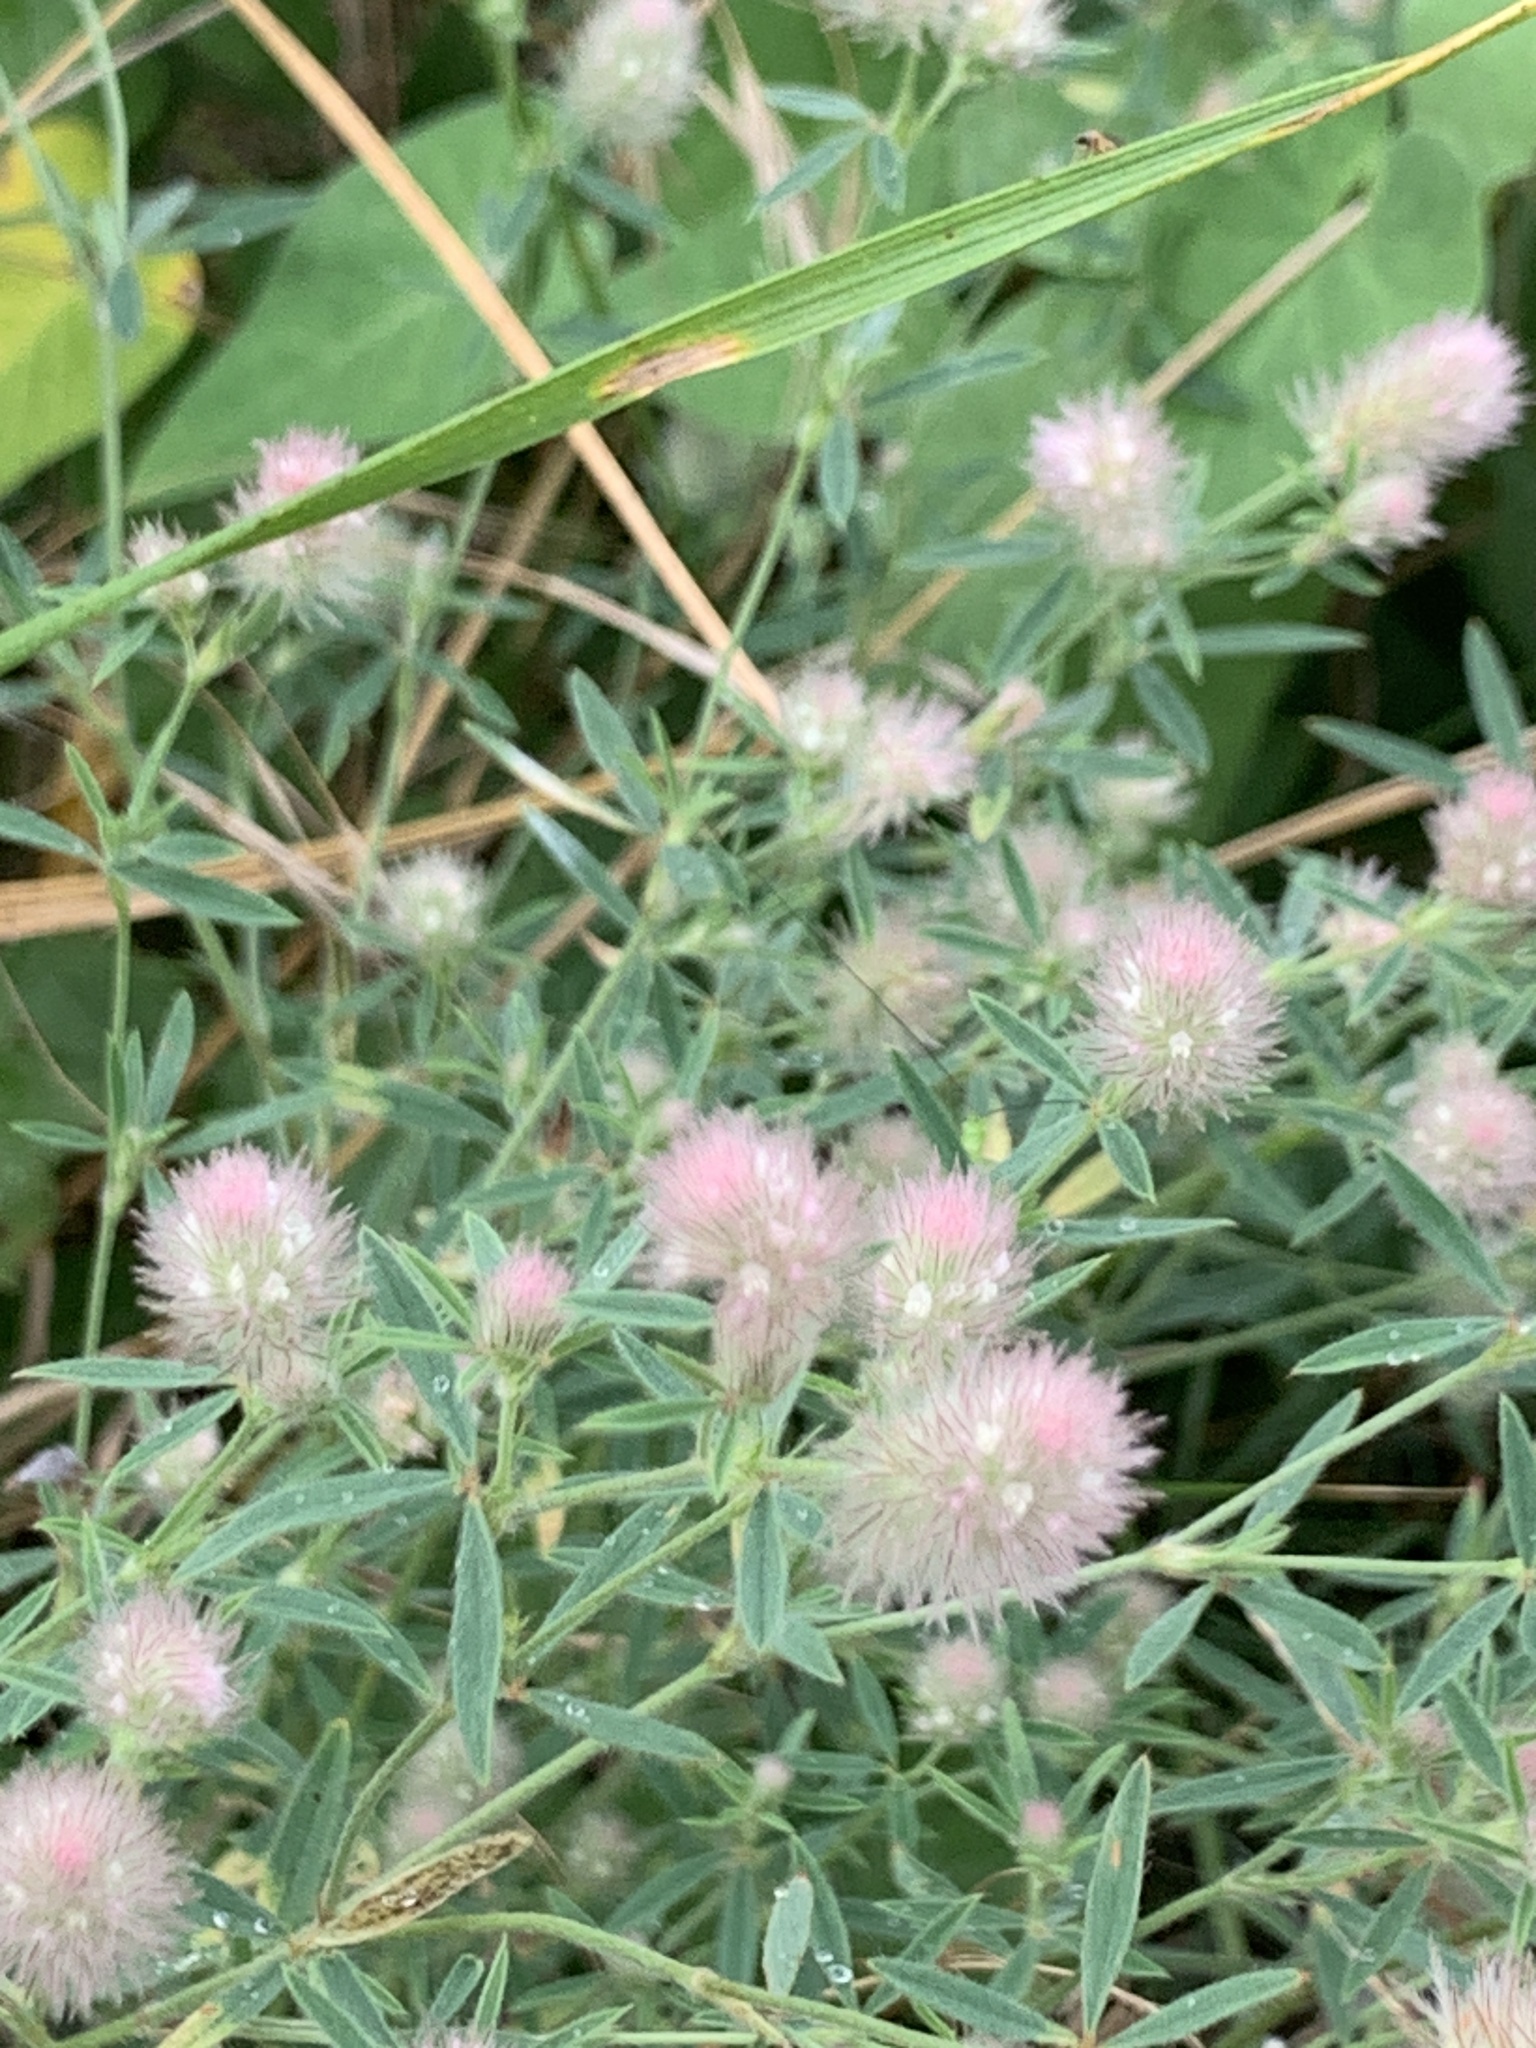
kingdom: Plantae
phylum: Tracheophyta
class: Magnoliopsida
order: Fabales
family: Fabaceae
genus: Trifolium
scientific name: Trifolium arvense
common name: Hare's-foot clover
